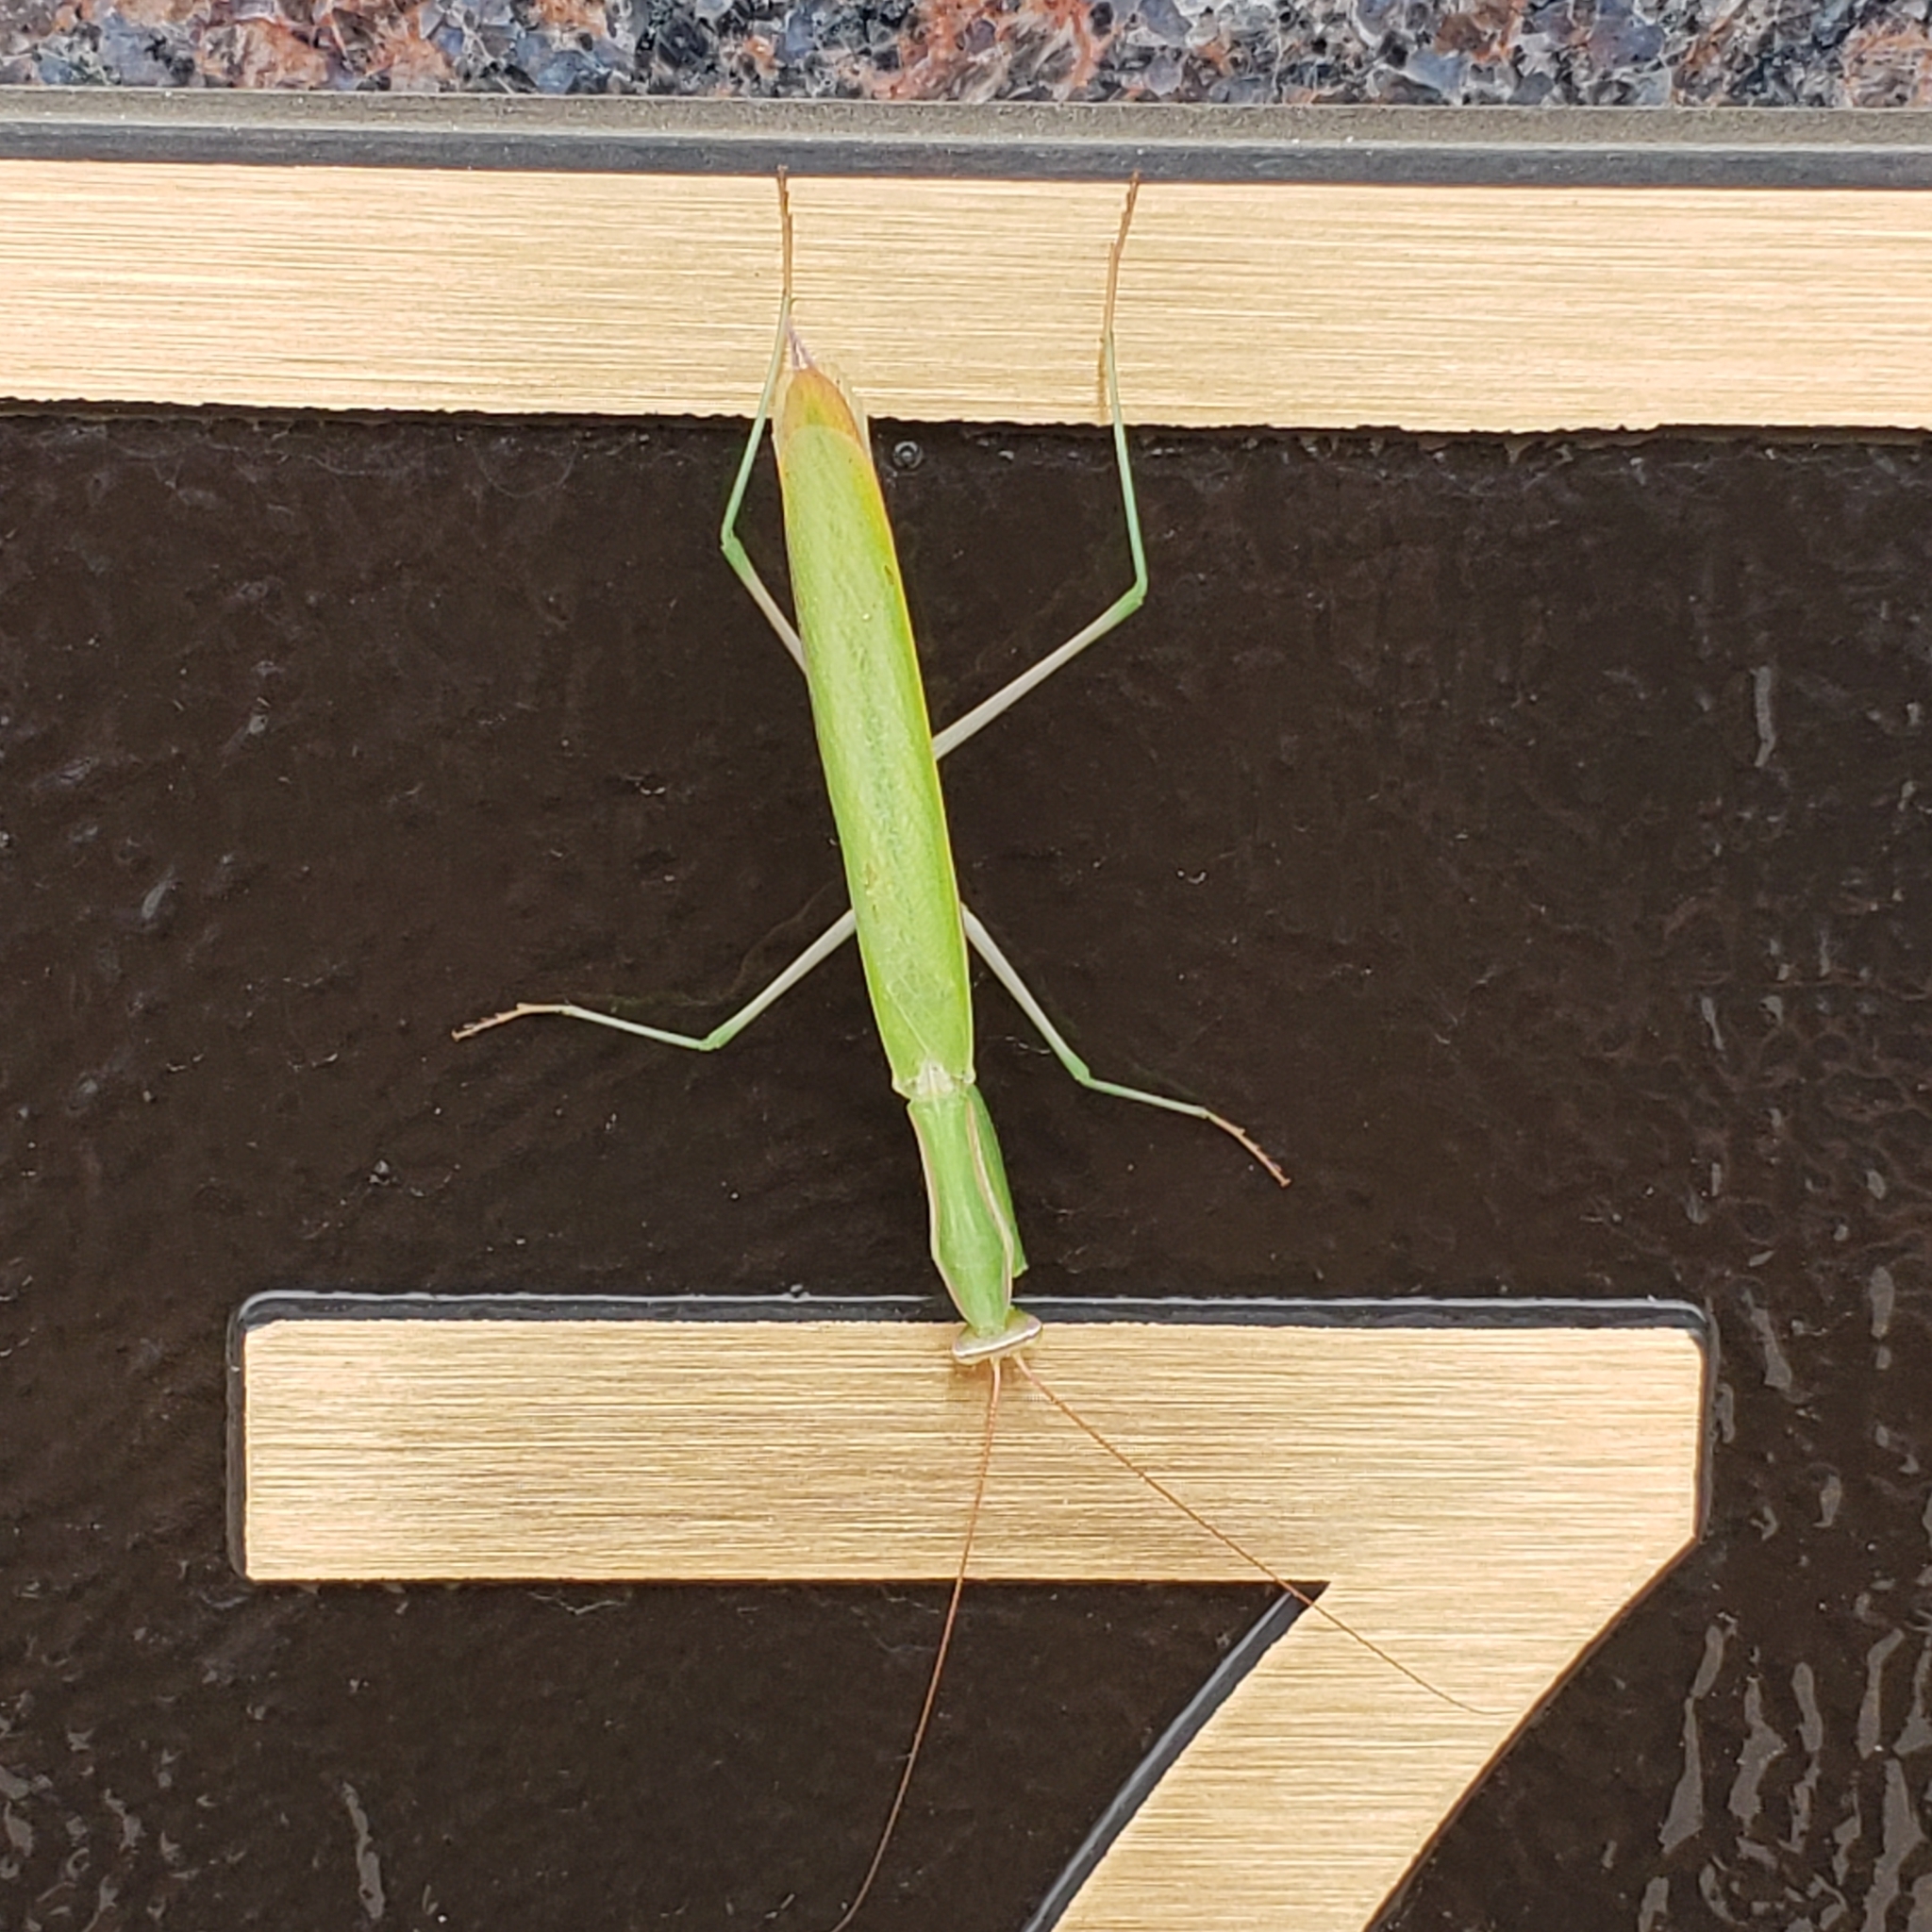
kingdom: Animalia
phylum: Arthropoda
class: Insecta
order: Mantodea
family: Mantidae
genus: Mantis
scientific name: Mantis religiosa
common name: Praying mantis
